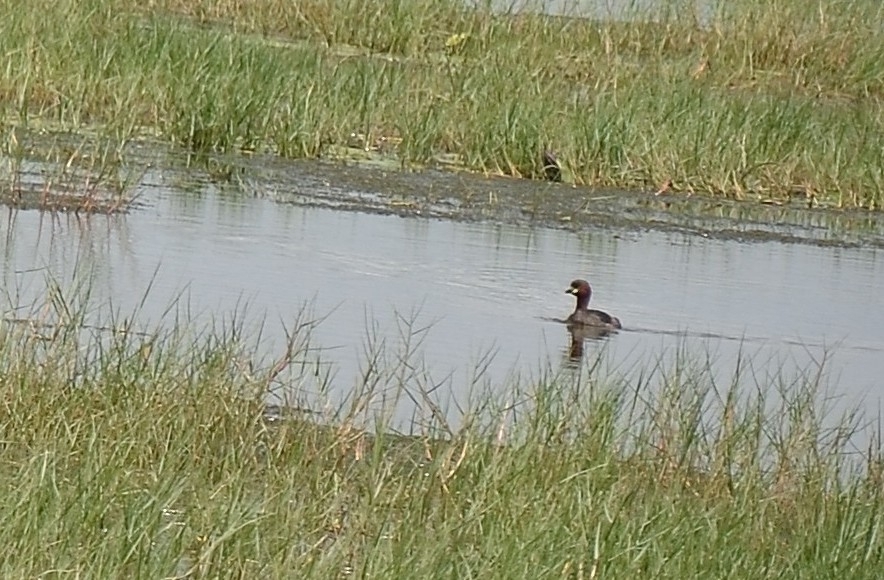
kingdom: Animalia
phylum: Chordata
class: Aves
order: Podicipediformes
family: Podicipedidae
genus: Tachybaptus
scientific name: Tachybaptus ruficollis
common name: Little grebe
